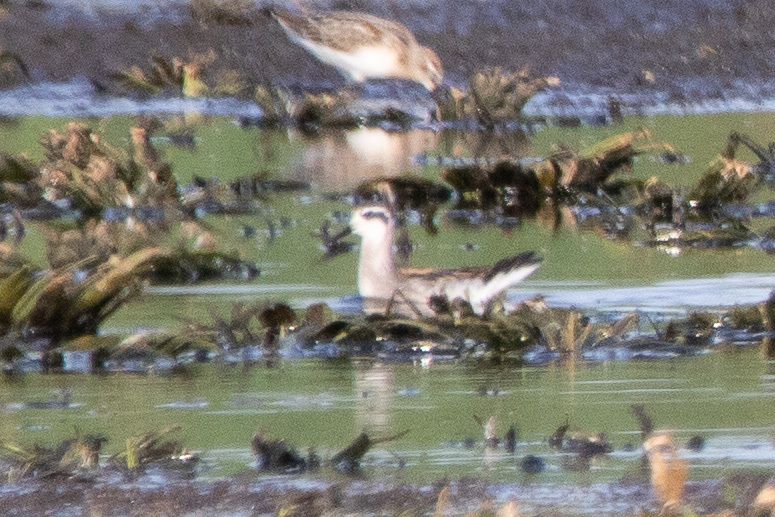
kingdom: Animalia
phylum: Chordata
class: Aves
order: Charadriiformes
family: Scolopacidae
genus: Phalaropus
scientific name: Phalaropus lobatus
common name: Red-necked phalarope
